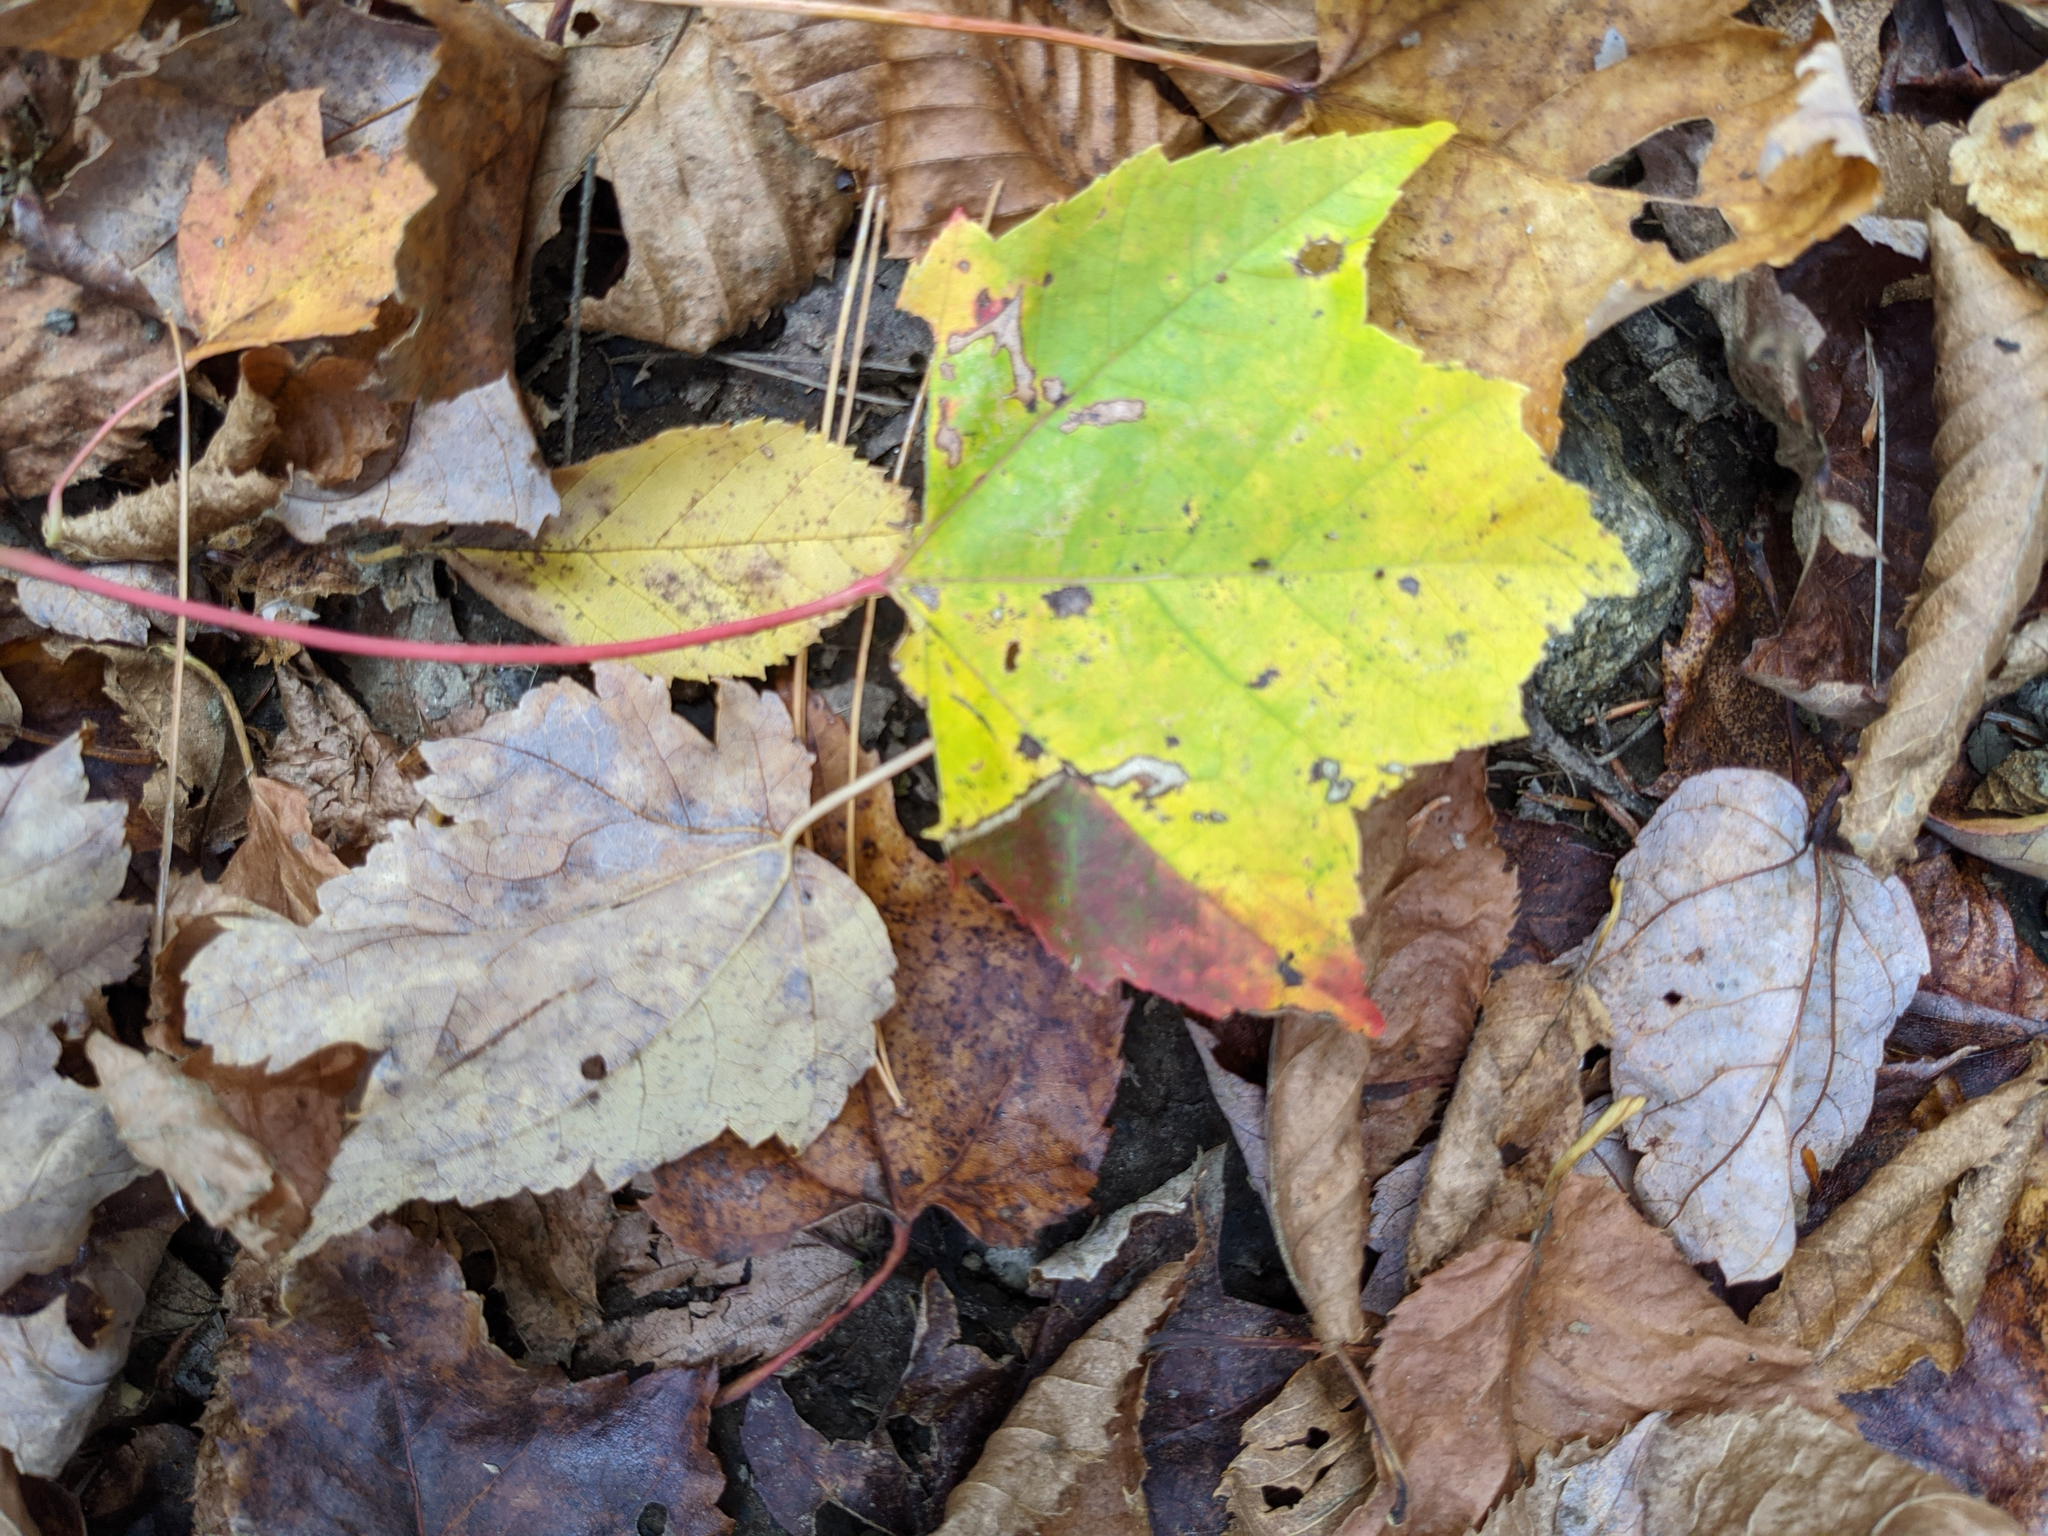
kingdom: Plantae
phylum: Tracheophyta
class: Magnoliopsida
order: Sapindales
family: Sapindaceae
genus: Acer
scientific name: Acer rubrum
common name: Red maple
